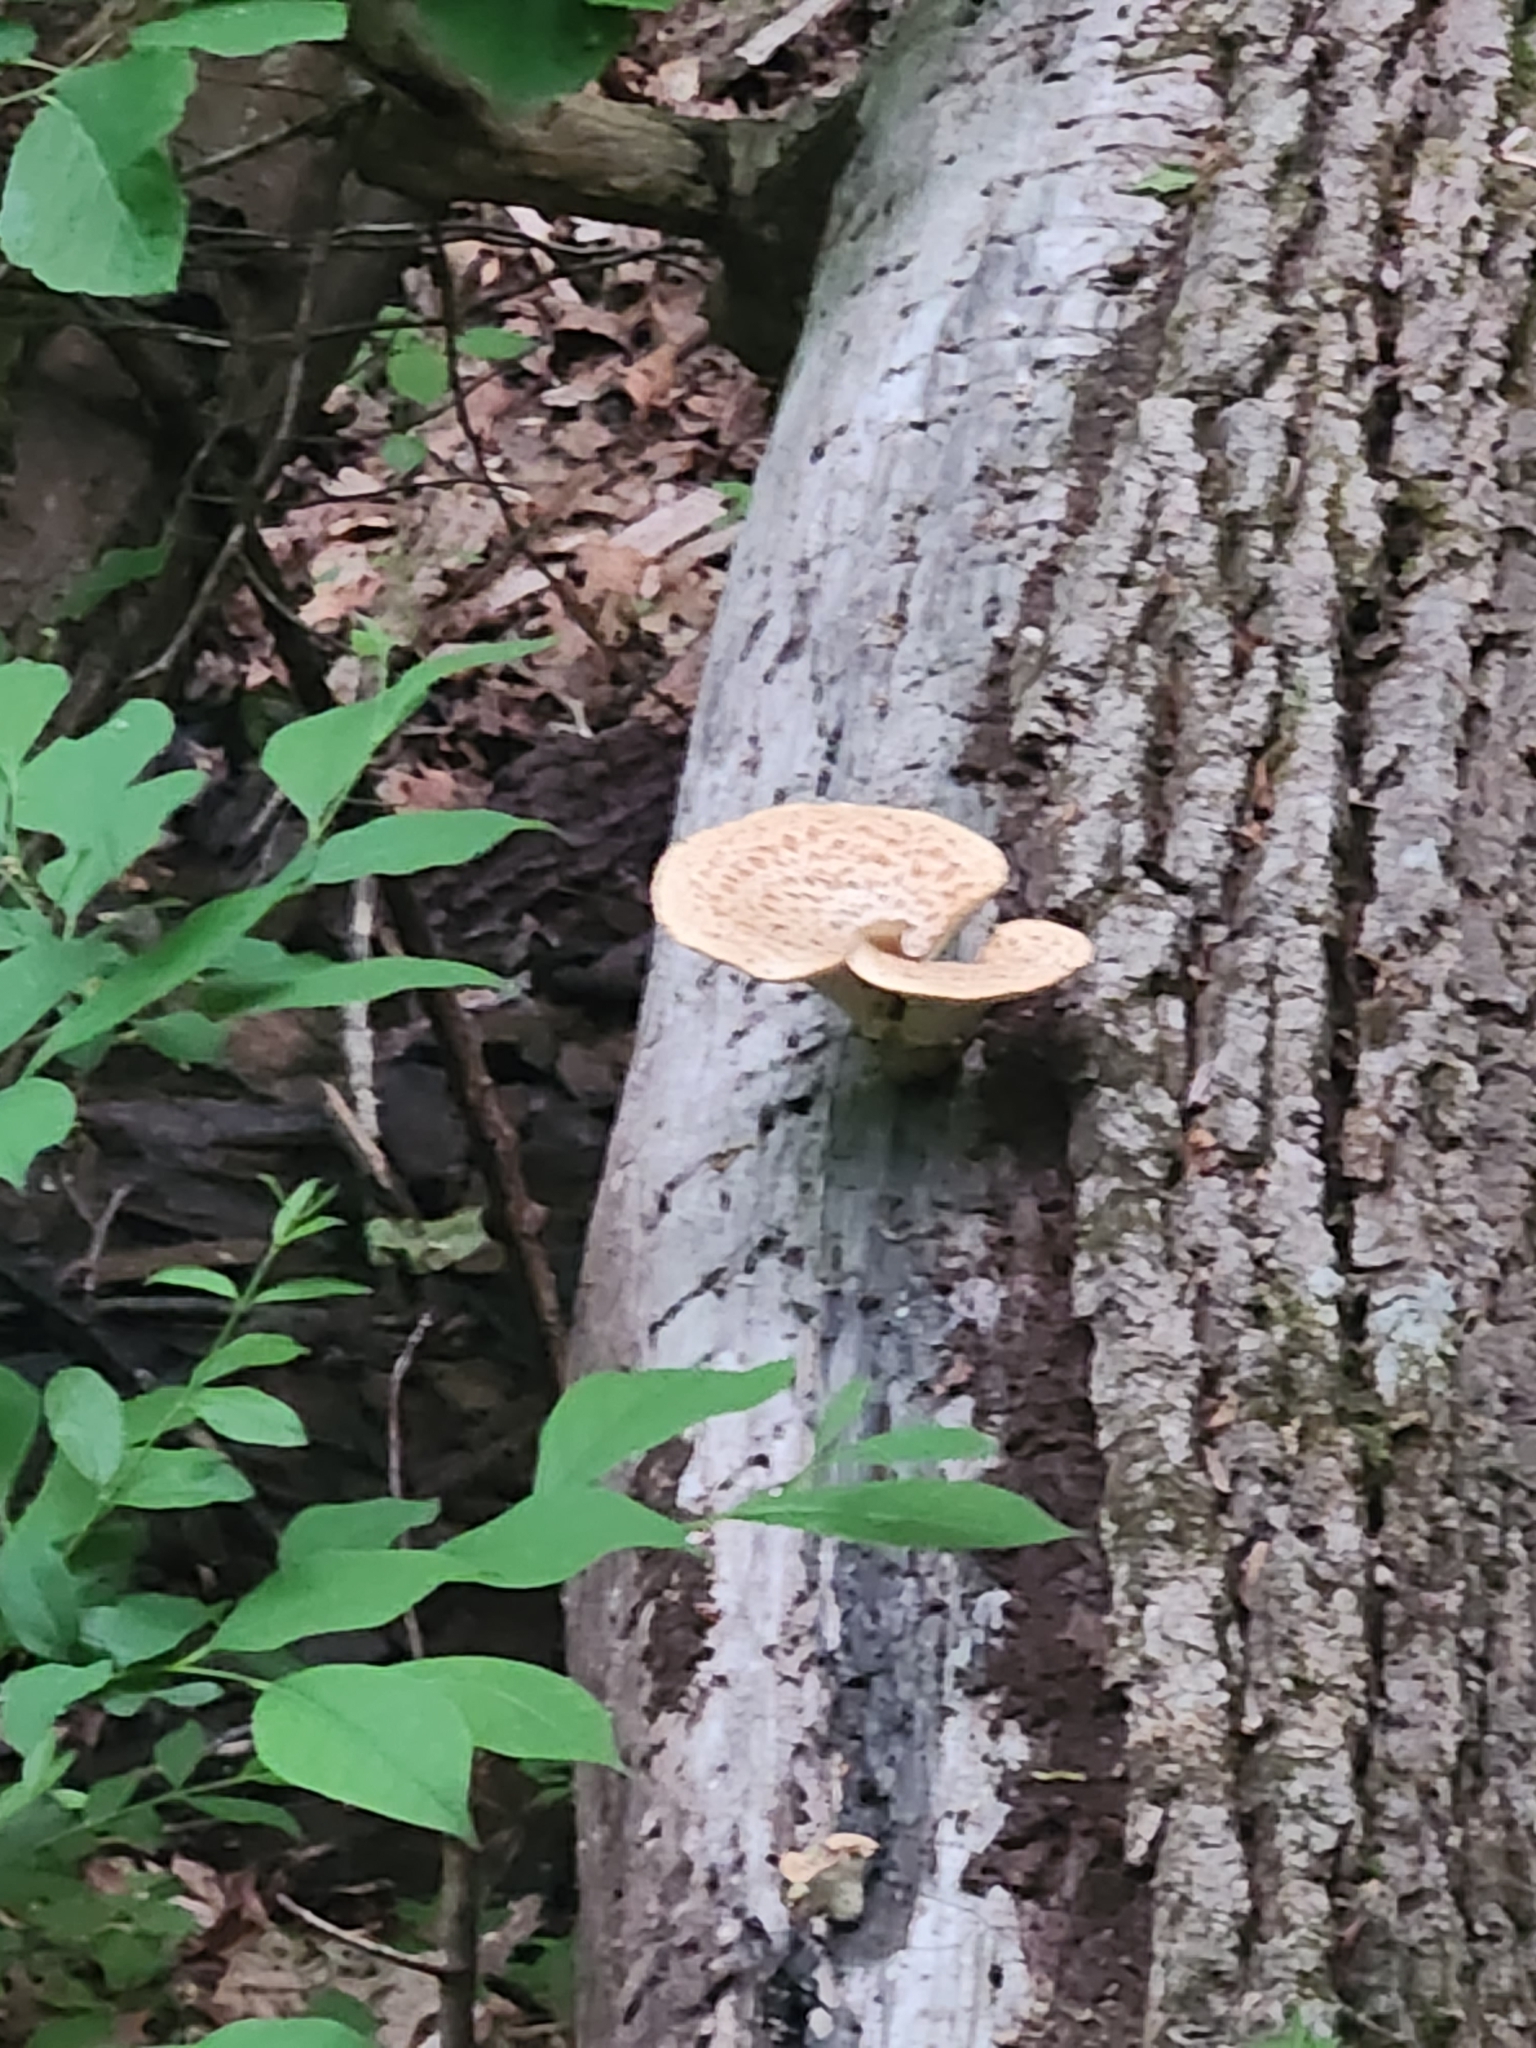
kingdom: Fungi
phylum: Basidiomycota
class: Agaricomycetes
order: Polyporales
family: Polyporaceae
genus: Cerioporus
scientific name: Cerioporus squamosus
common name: Dryad's saddle
